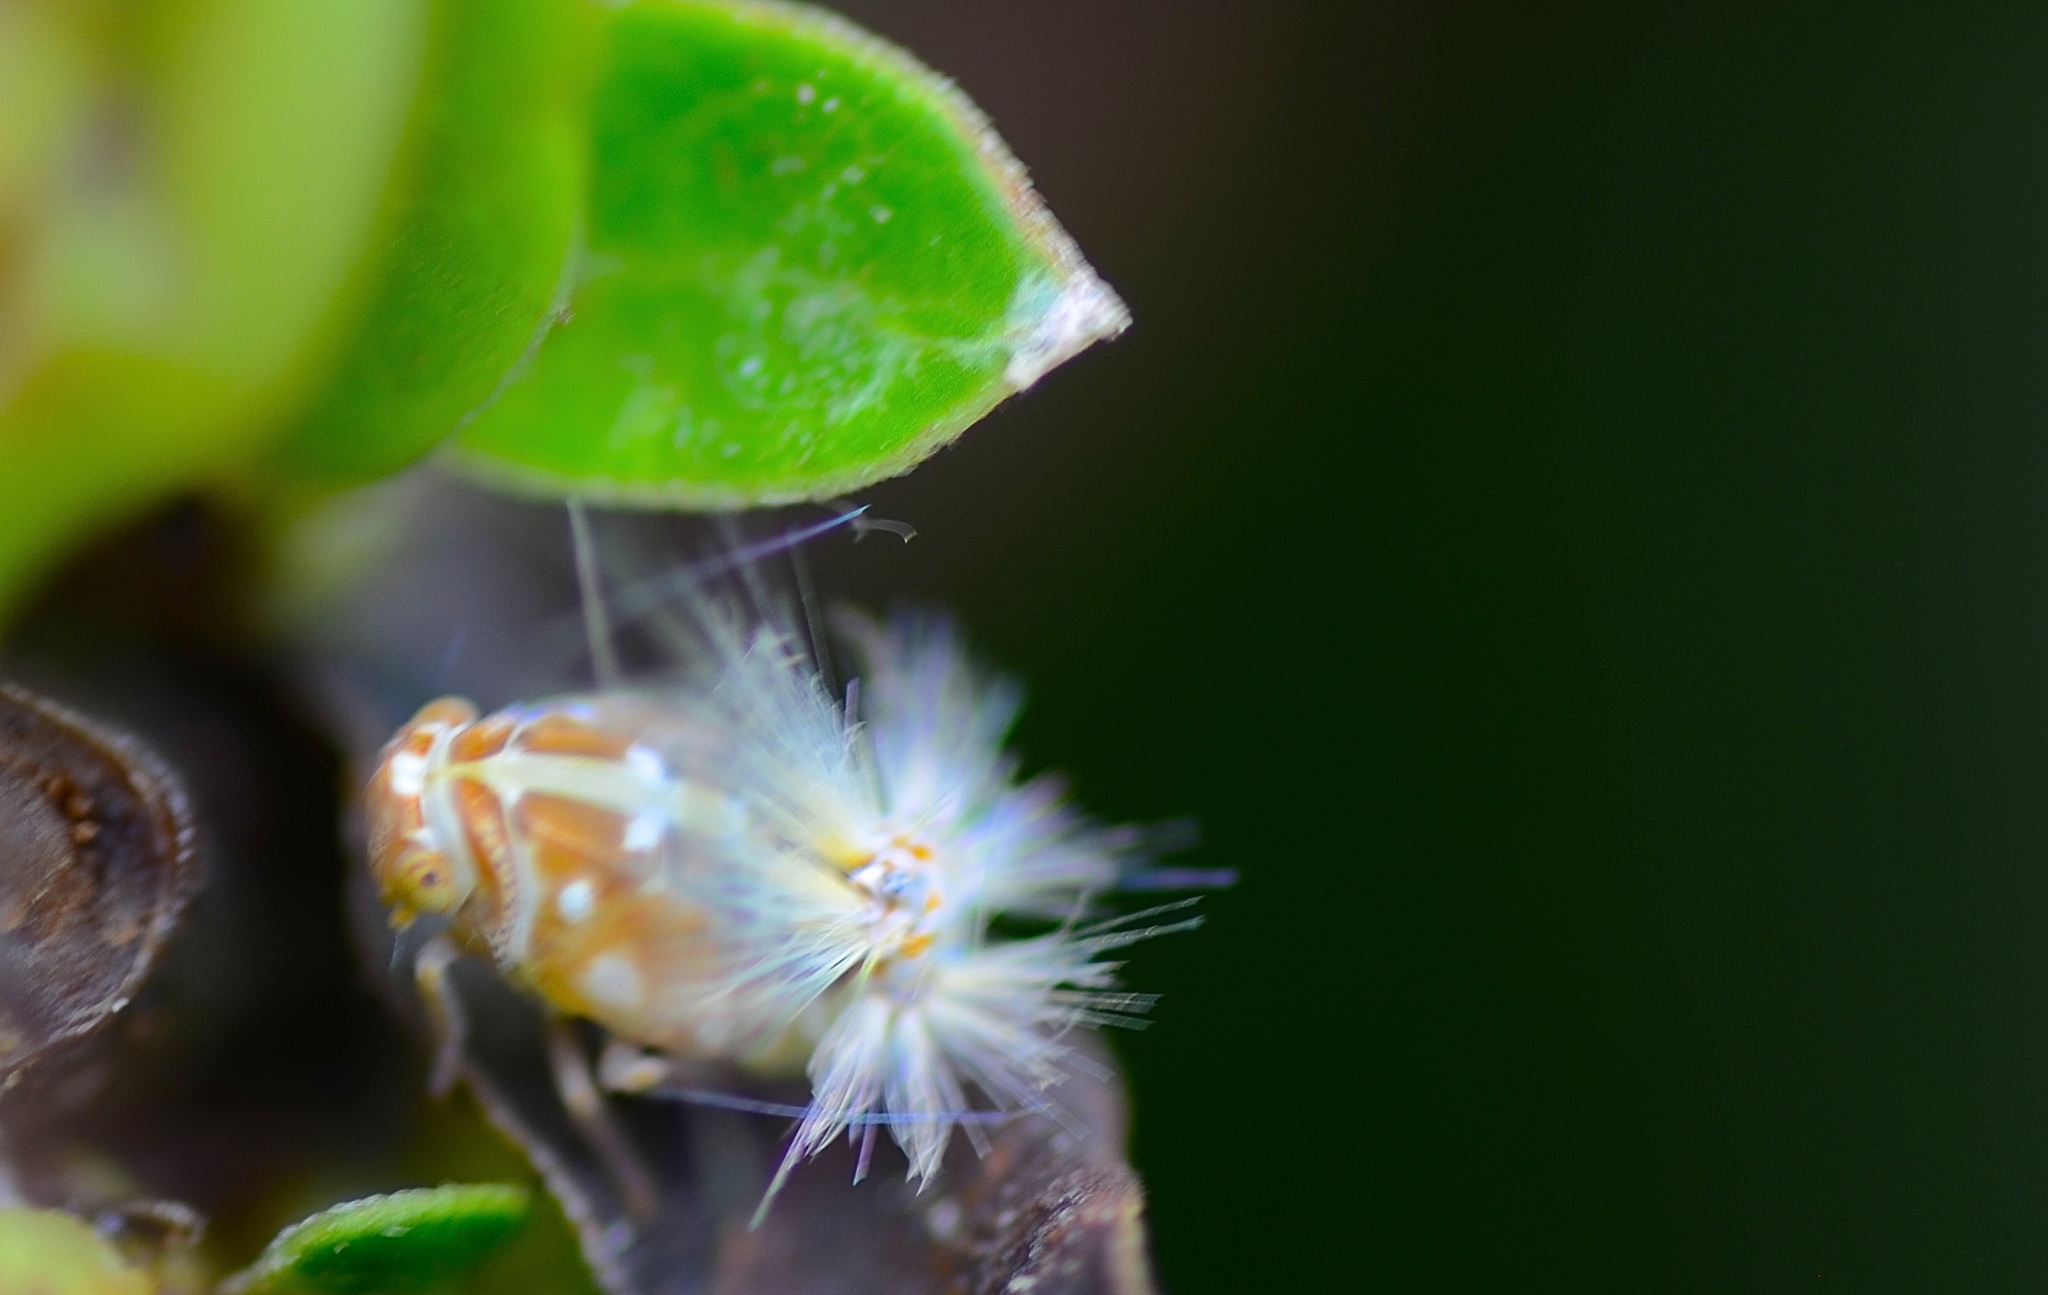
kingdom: Animalia
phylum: Arthropoda
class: Insecta
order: Hemiptera
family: Ricaniidae
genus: Scolypopa
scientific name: Scolypopa australis
